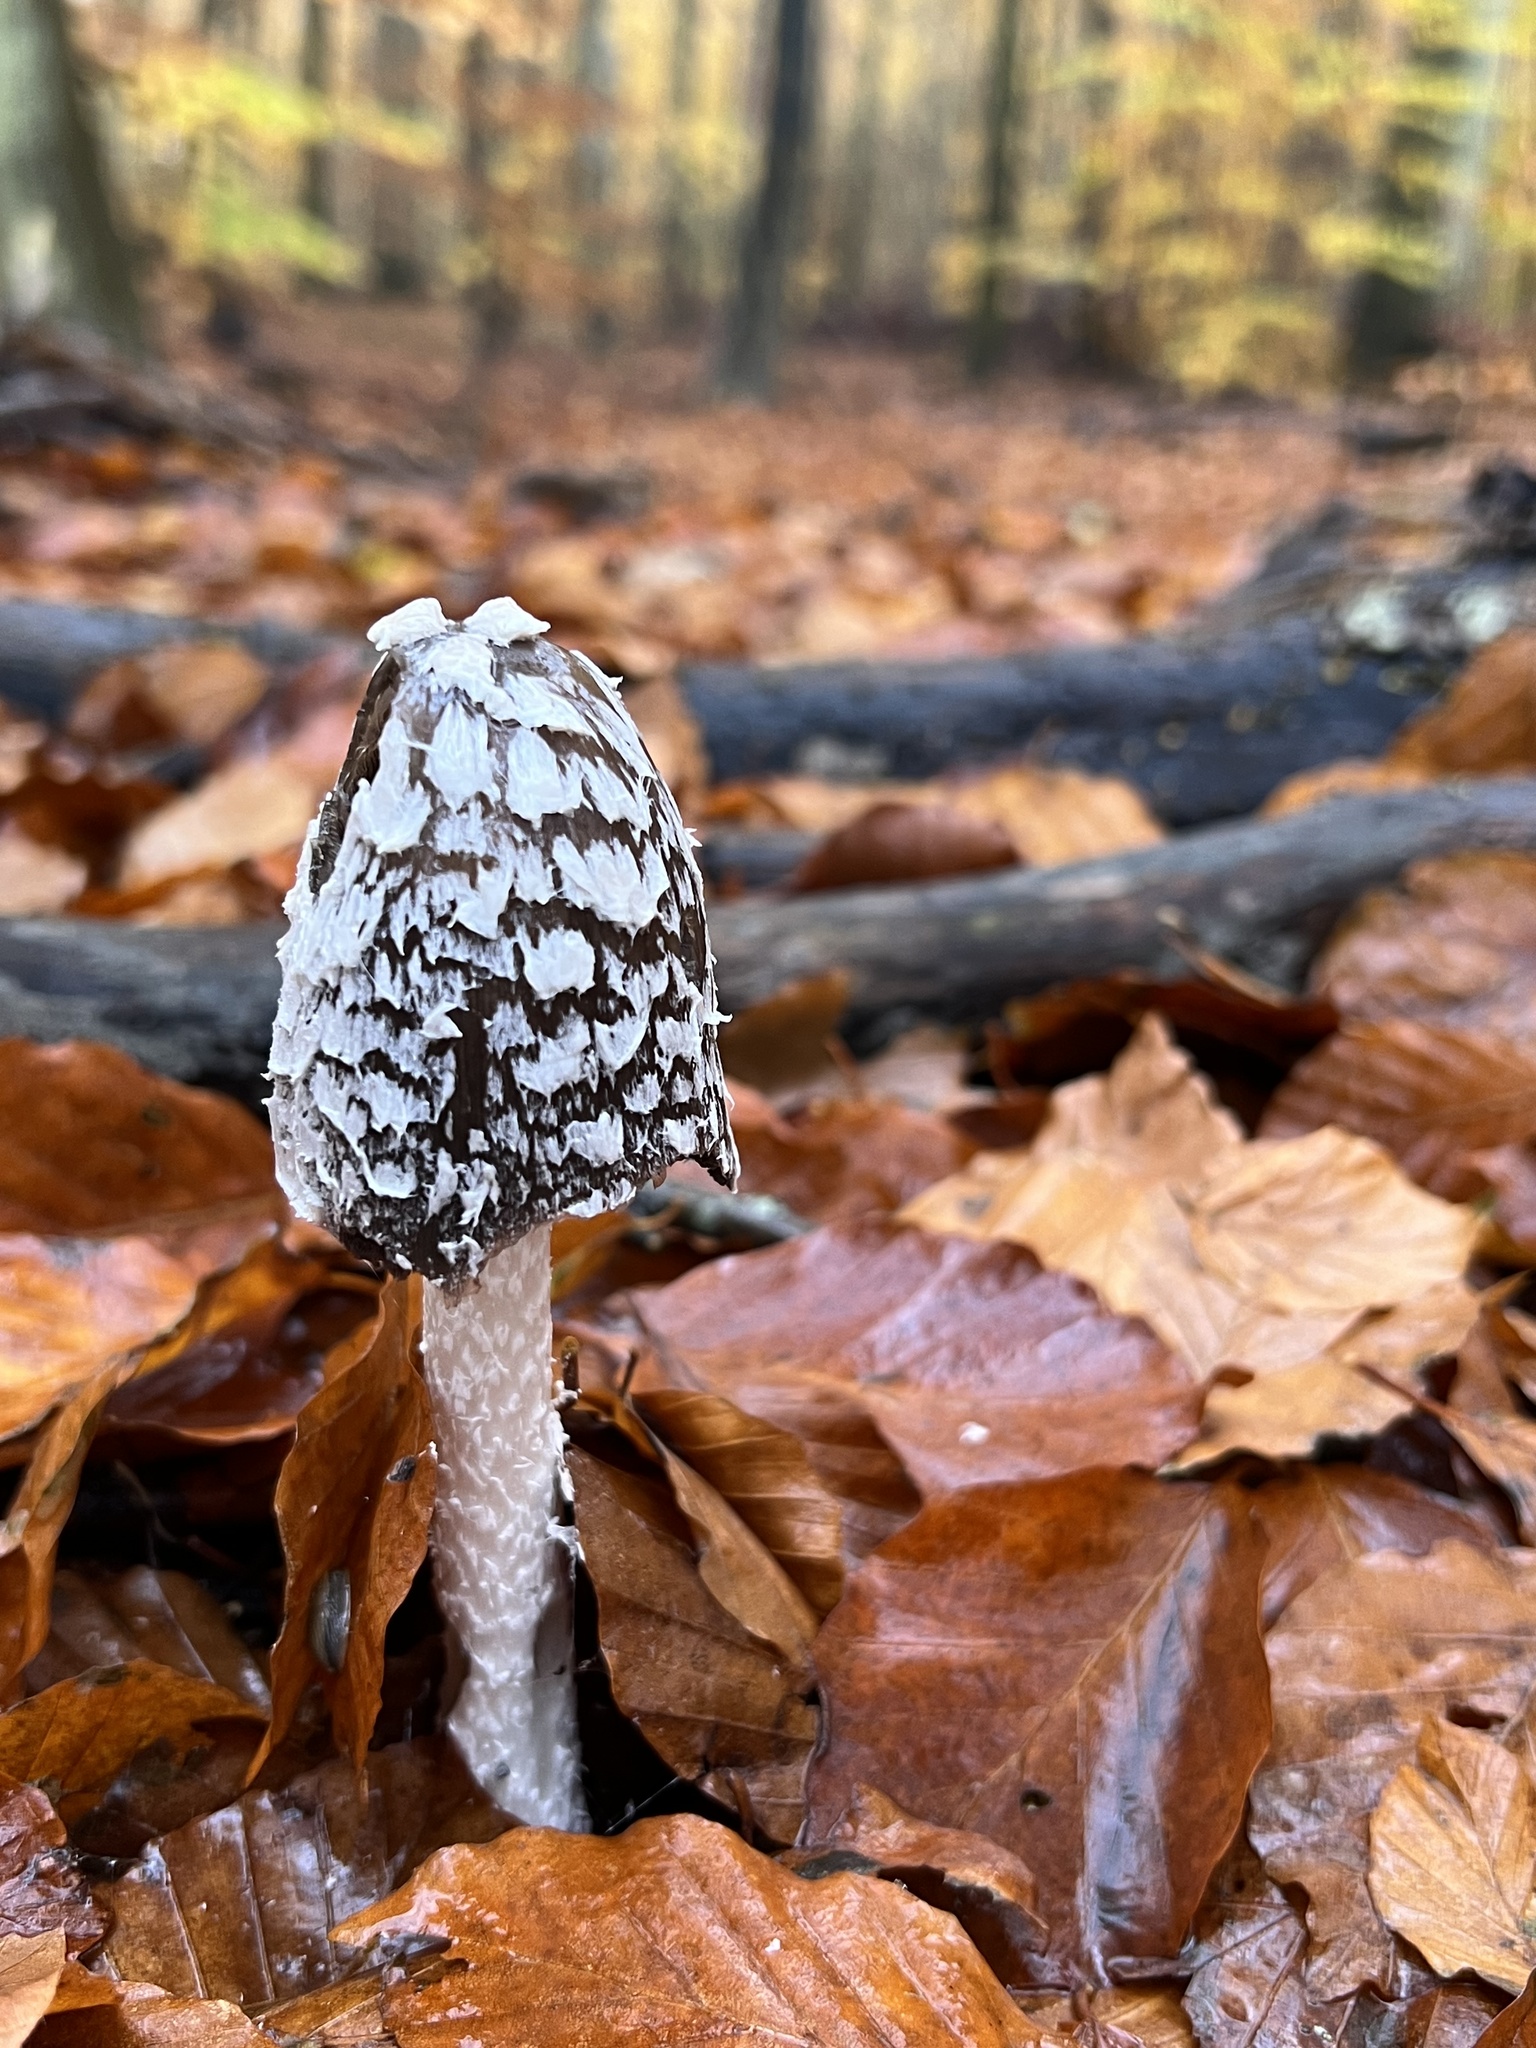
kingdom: Fungi
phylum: Basidiomycota
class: Agaricomycetes
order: Agaricales
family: Psathyrellaceae
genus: Coprinopsis
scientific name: Coprinopsis picacea
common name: Magpie inkcap
